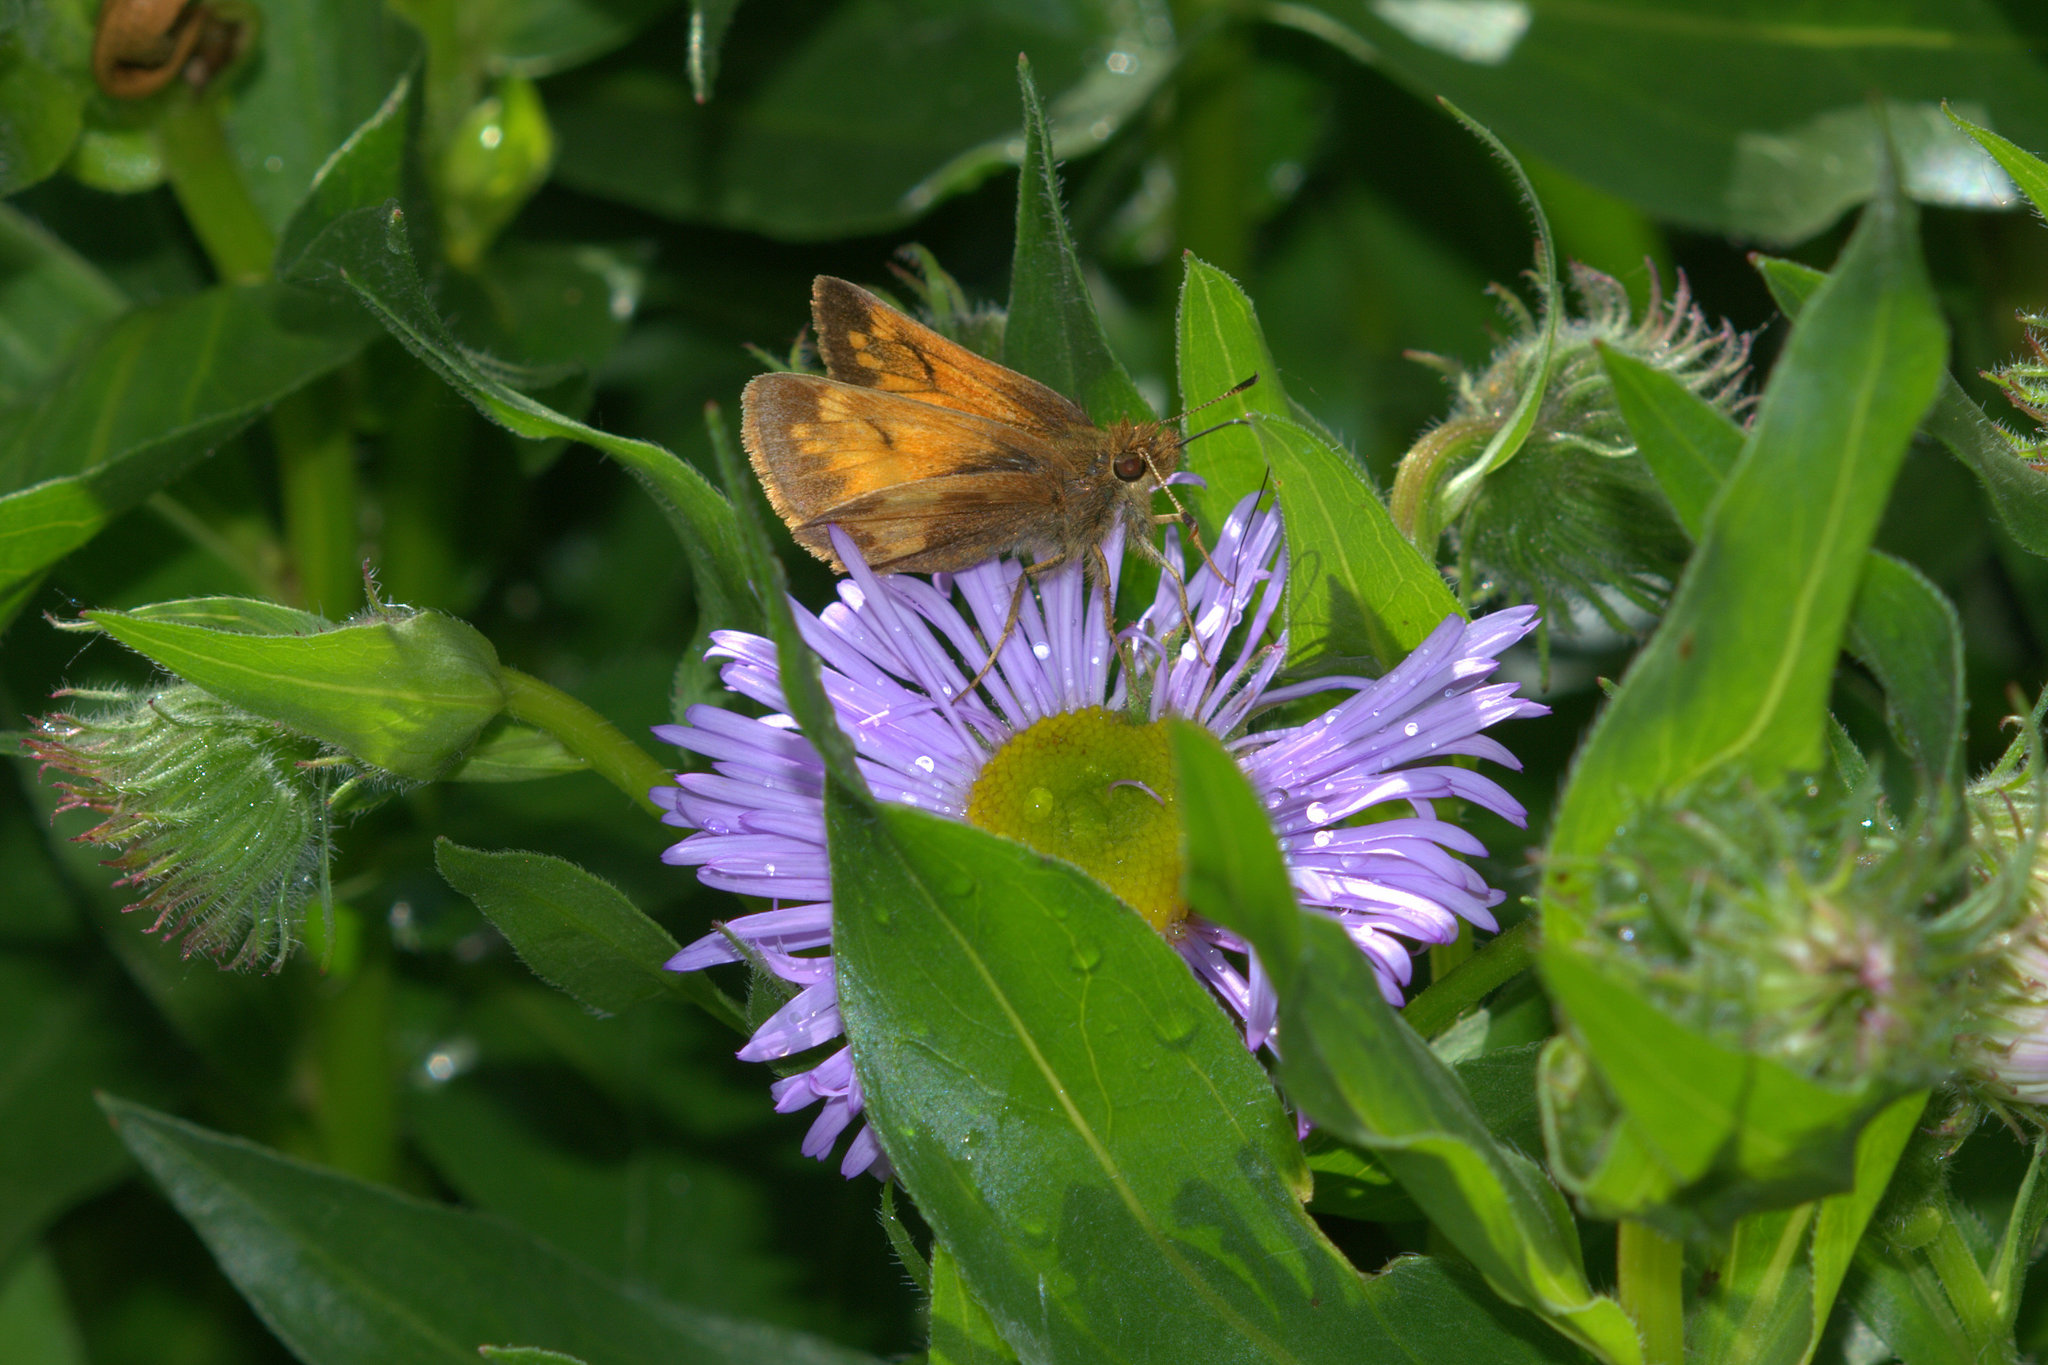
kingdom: Animalia
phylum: Arthropoda
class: Insecta
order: Lepidoptera
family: Hesperiidae
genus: Lon
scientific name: Lon hobomok
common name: Hobomok skipper
